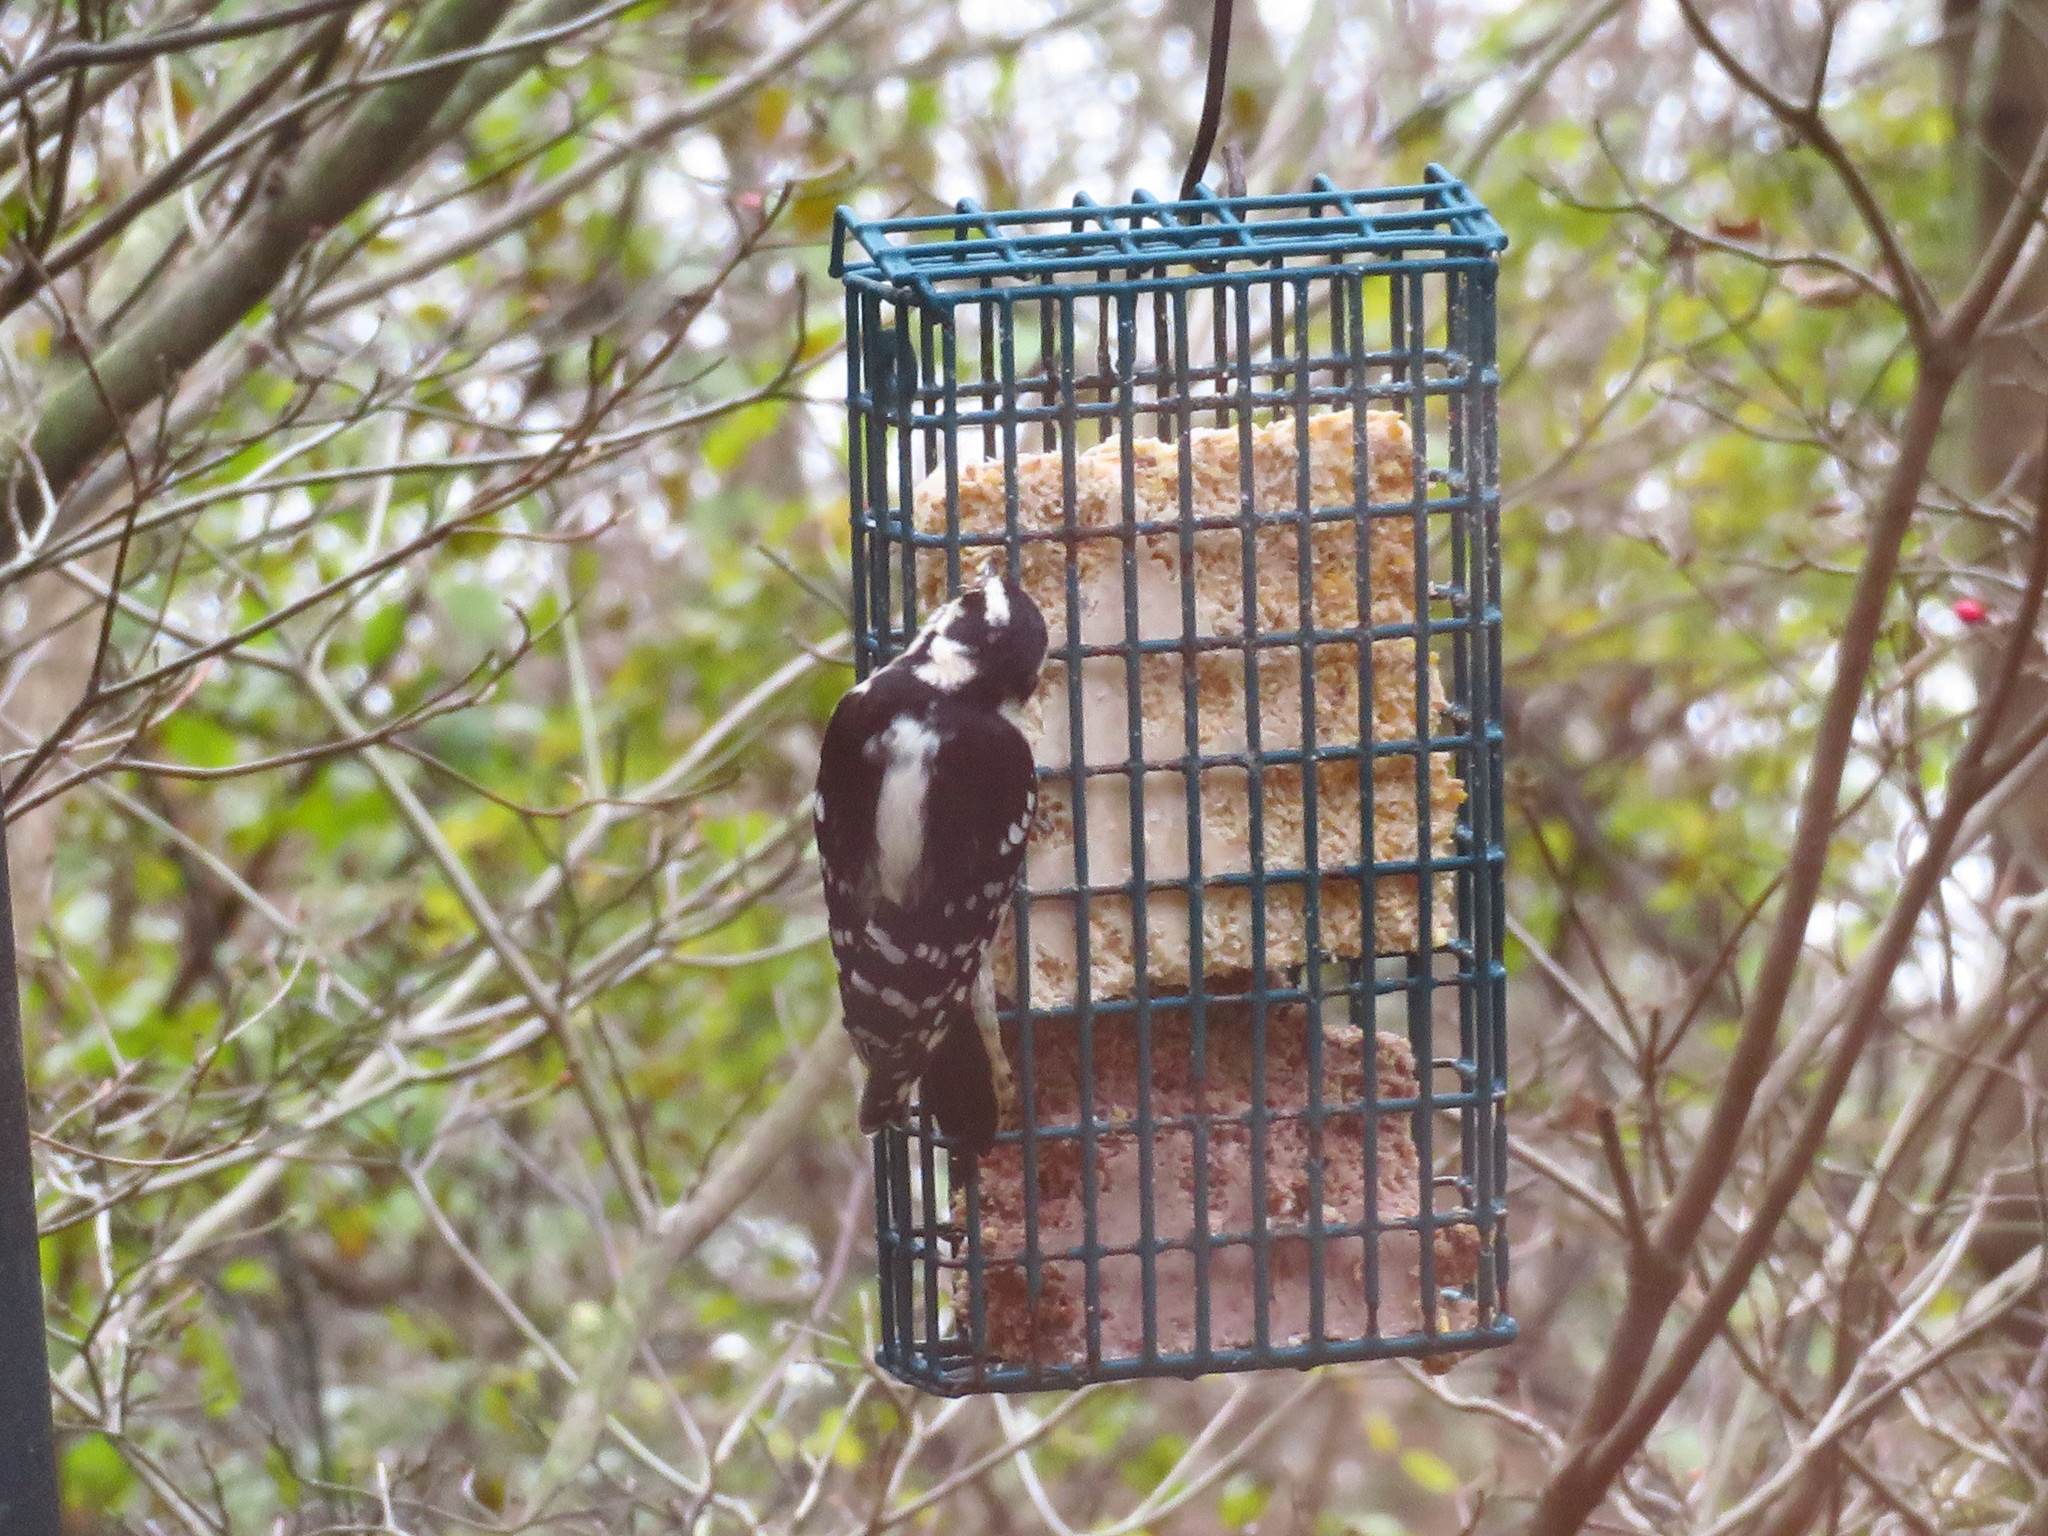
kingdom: Animalia
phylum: Chordata
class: Aves
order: Piciformes
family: Picidae
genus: Dryobates
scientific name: Dryobates pubescens
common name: Downy woodpecker
